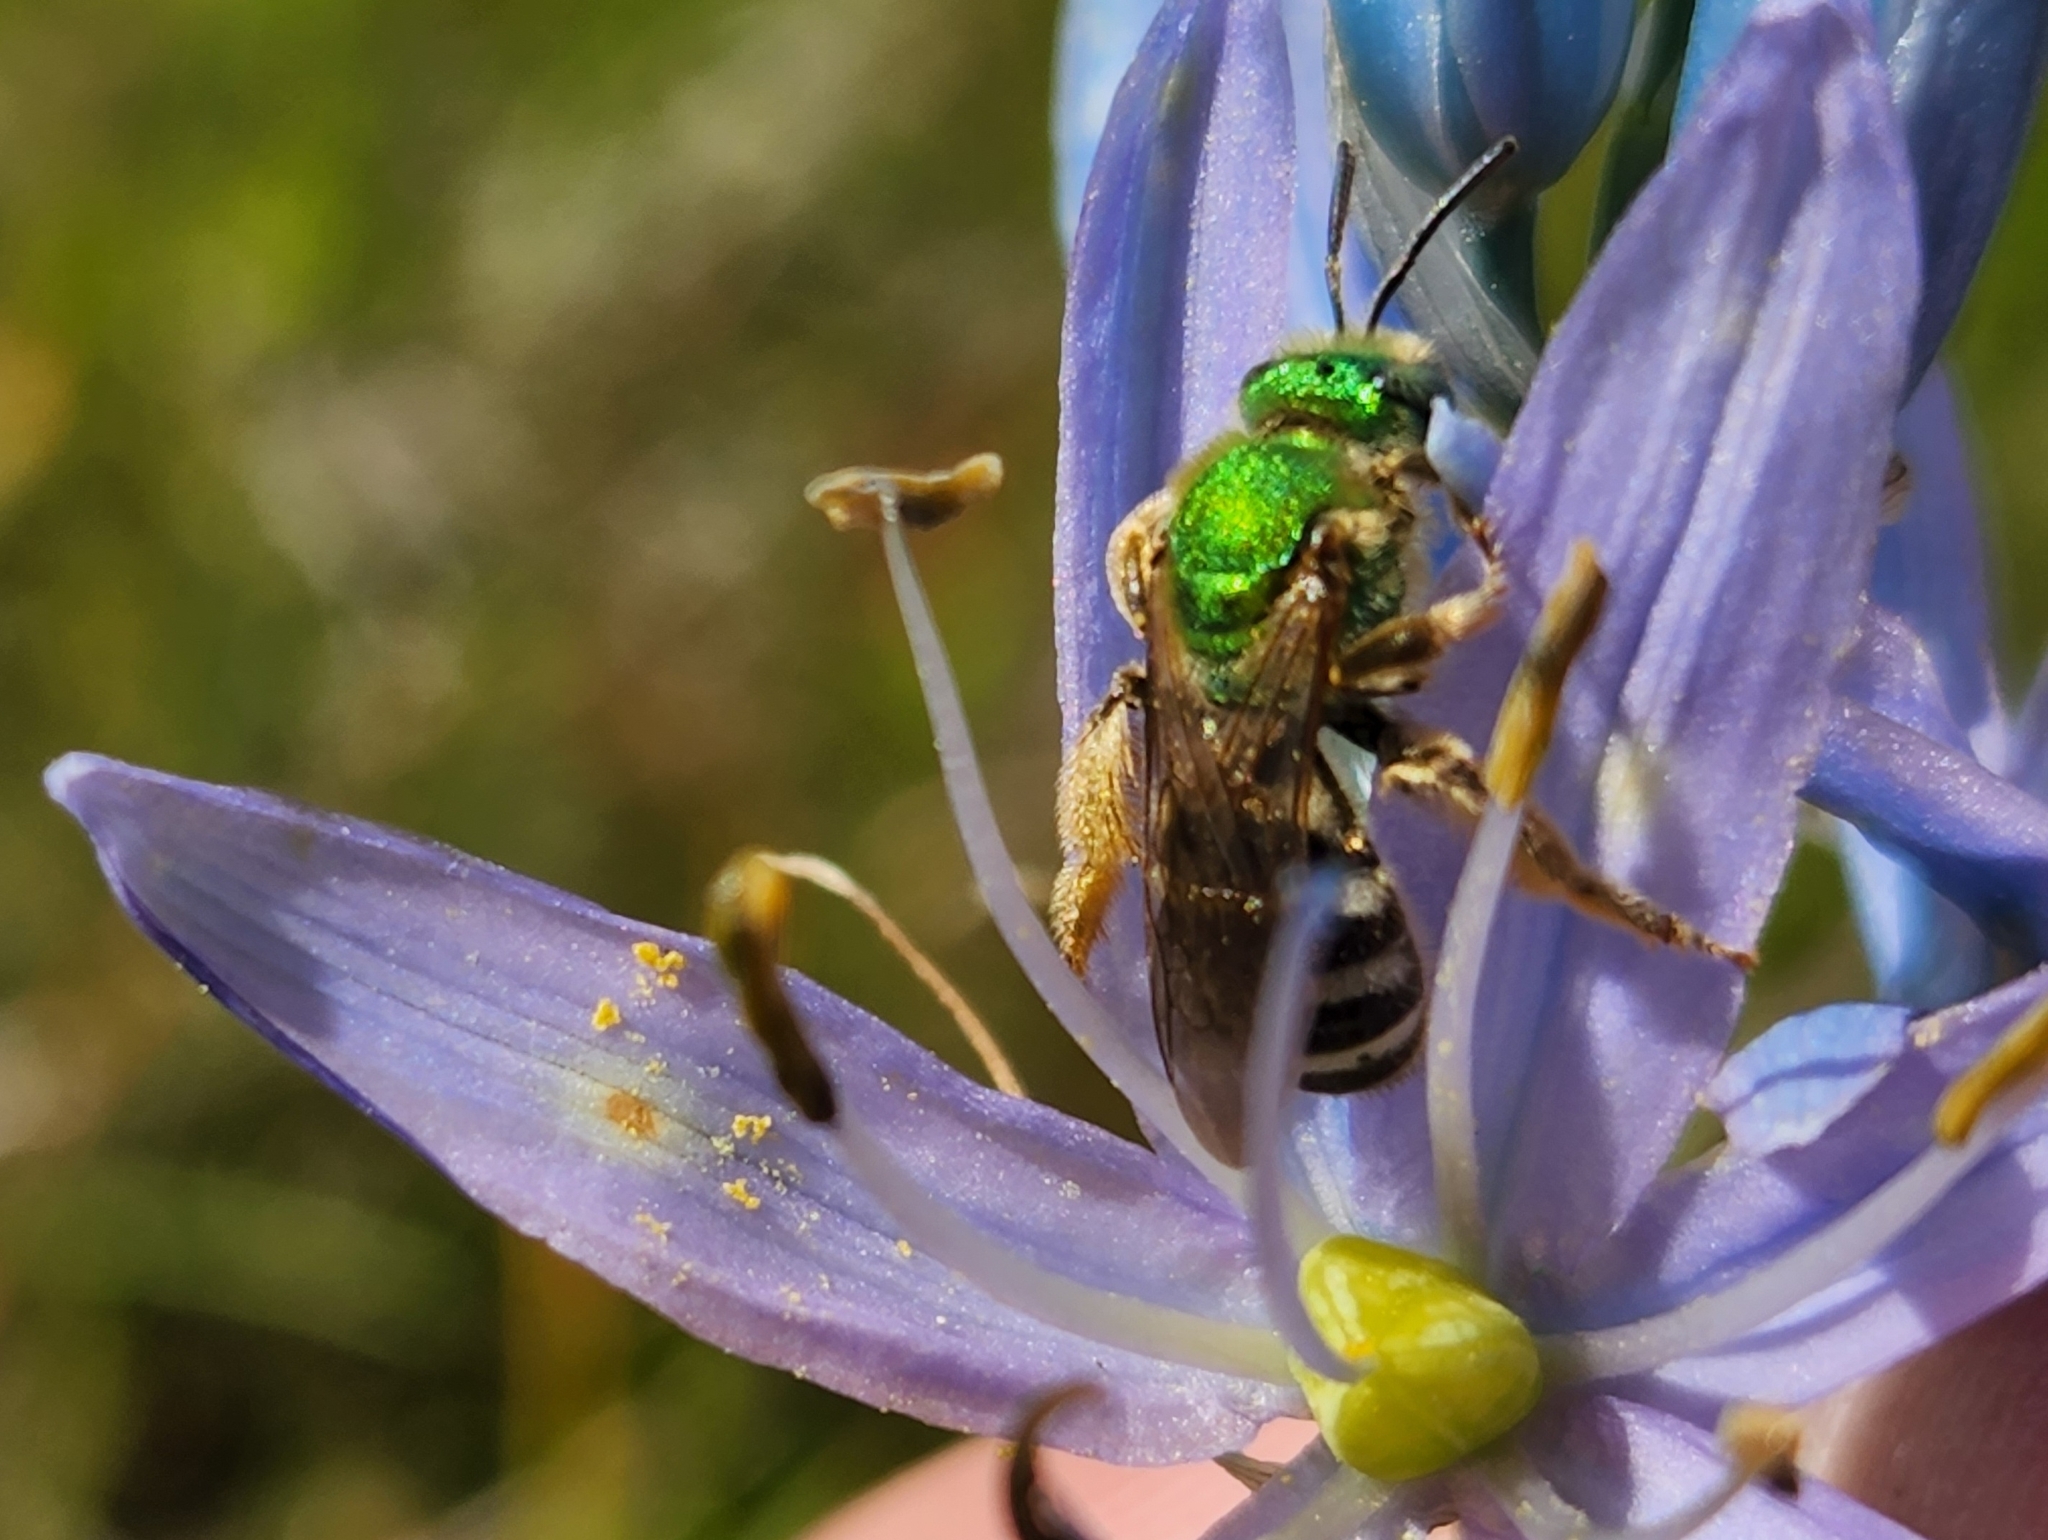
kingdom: Animalia
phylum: Arthropoda
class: Insecta
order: Hymenoptera
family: Halictidae
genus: Agapostemon
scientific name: Agapostemon virescens
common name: Bicolored striped sweat bee
